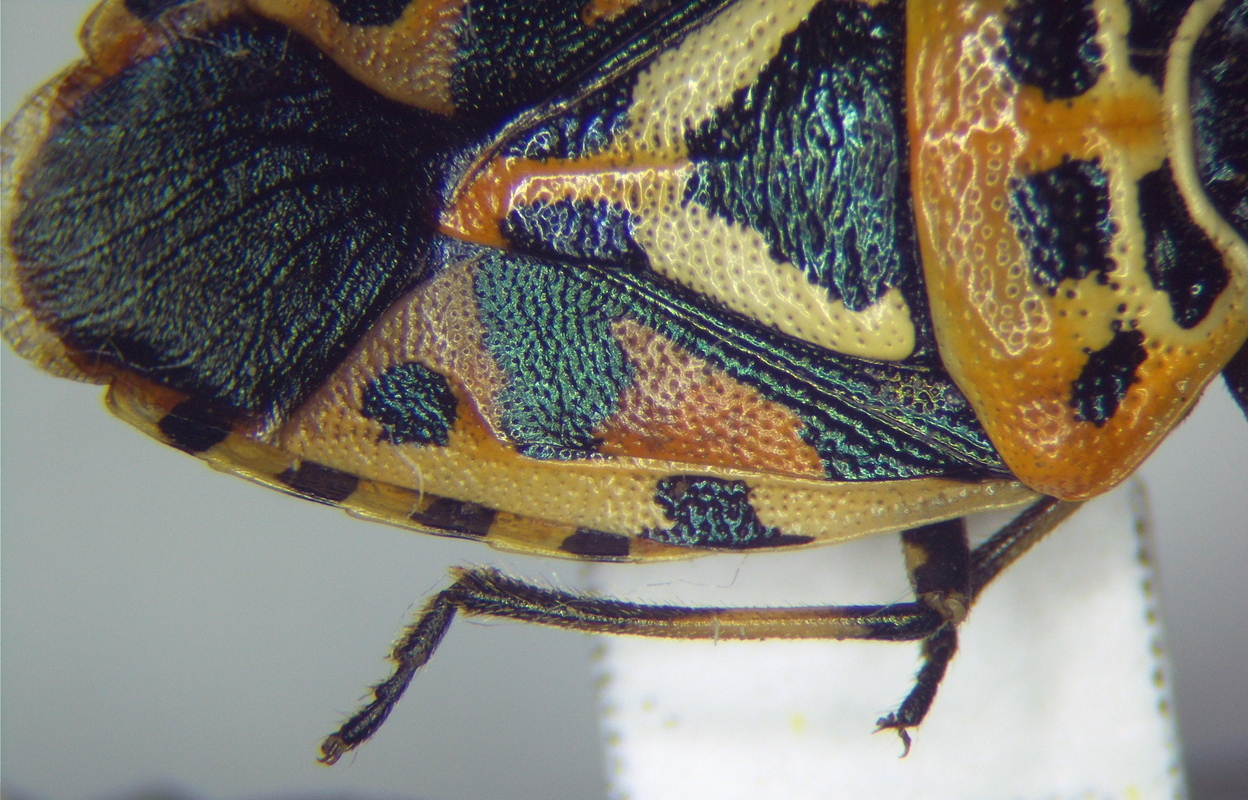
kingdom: Animalia
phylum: Arthropoda
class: Insecta
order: Hemiptera
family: Pentatomidae
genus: Eurydema
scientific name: Eurydema ventralis
